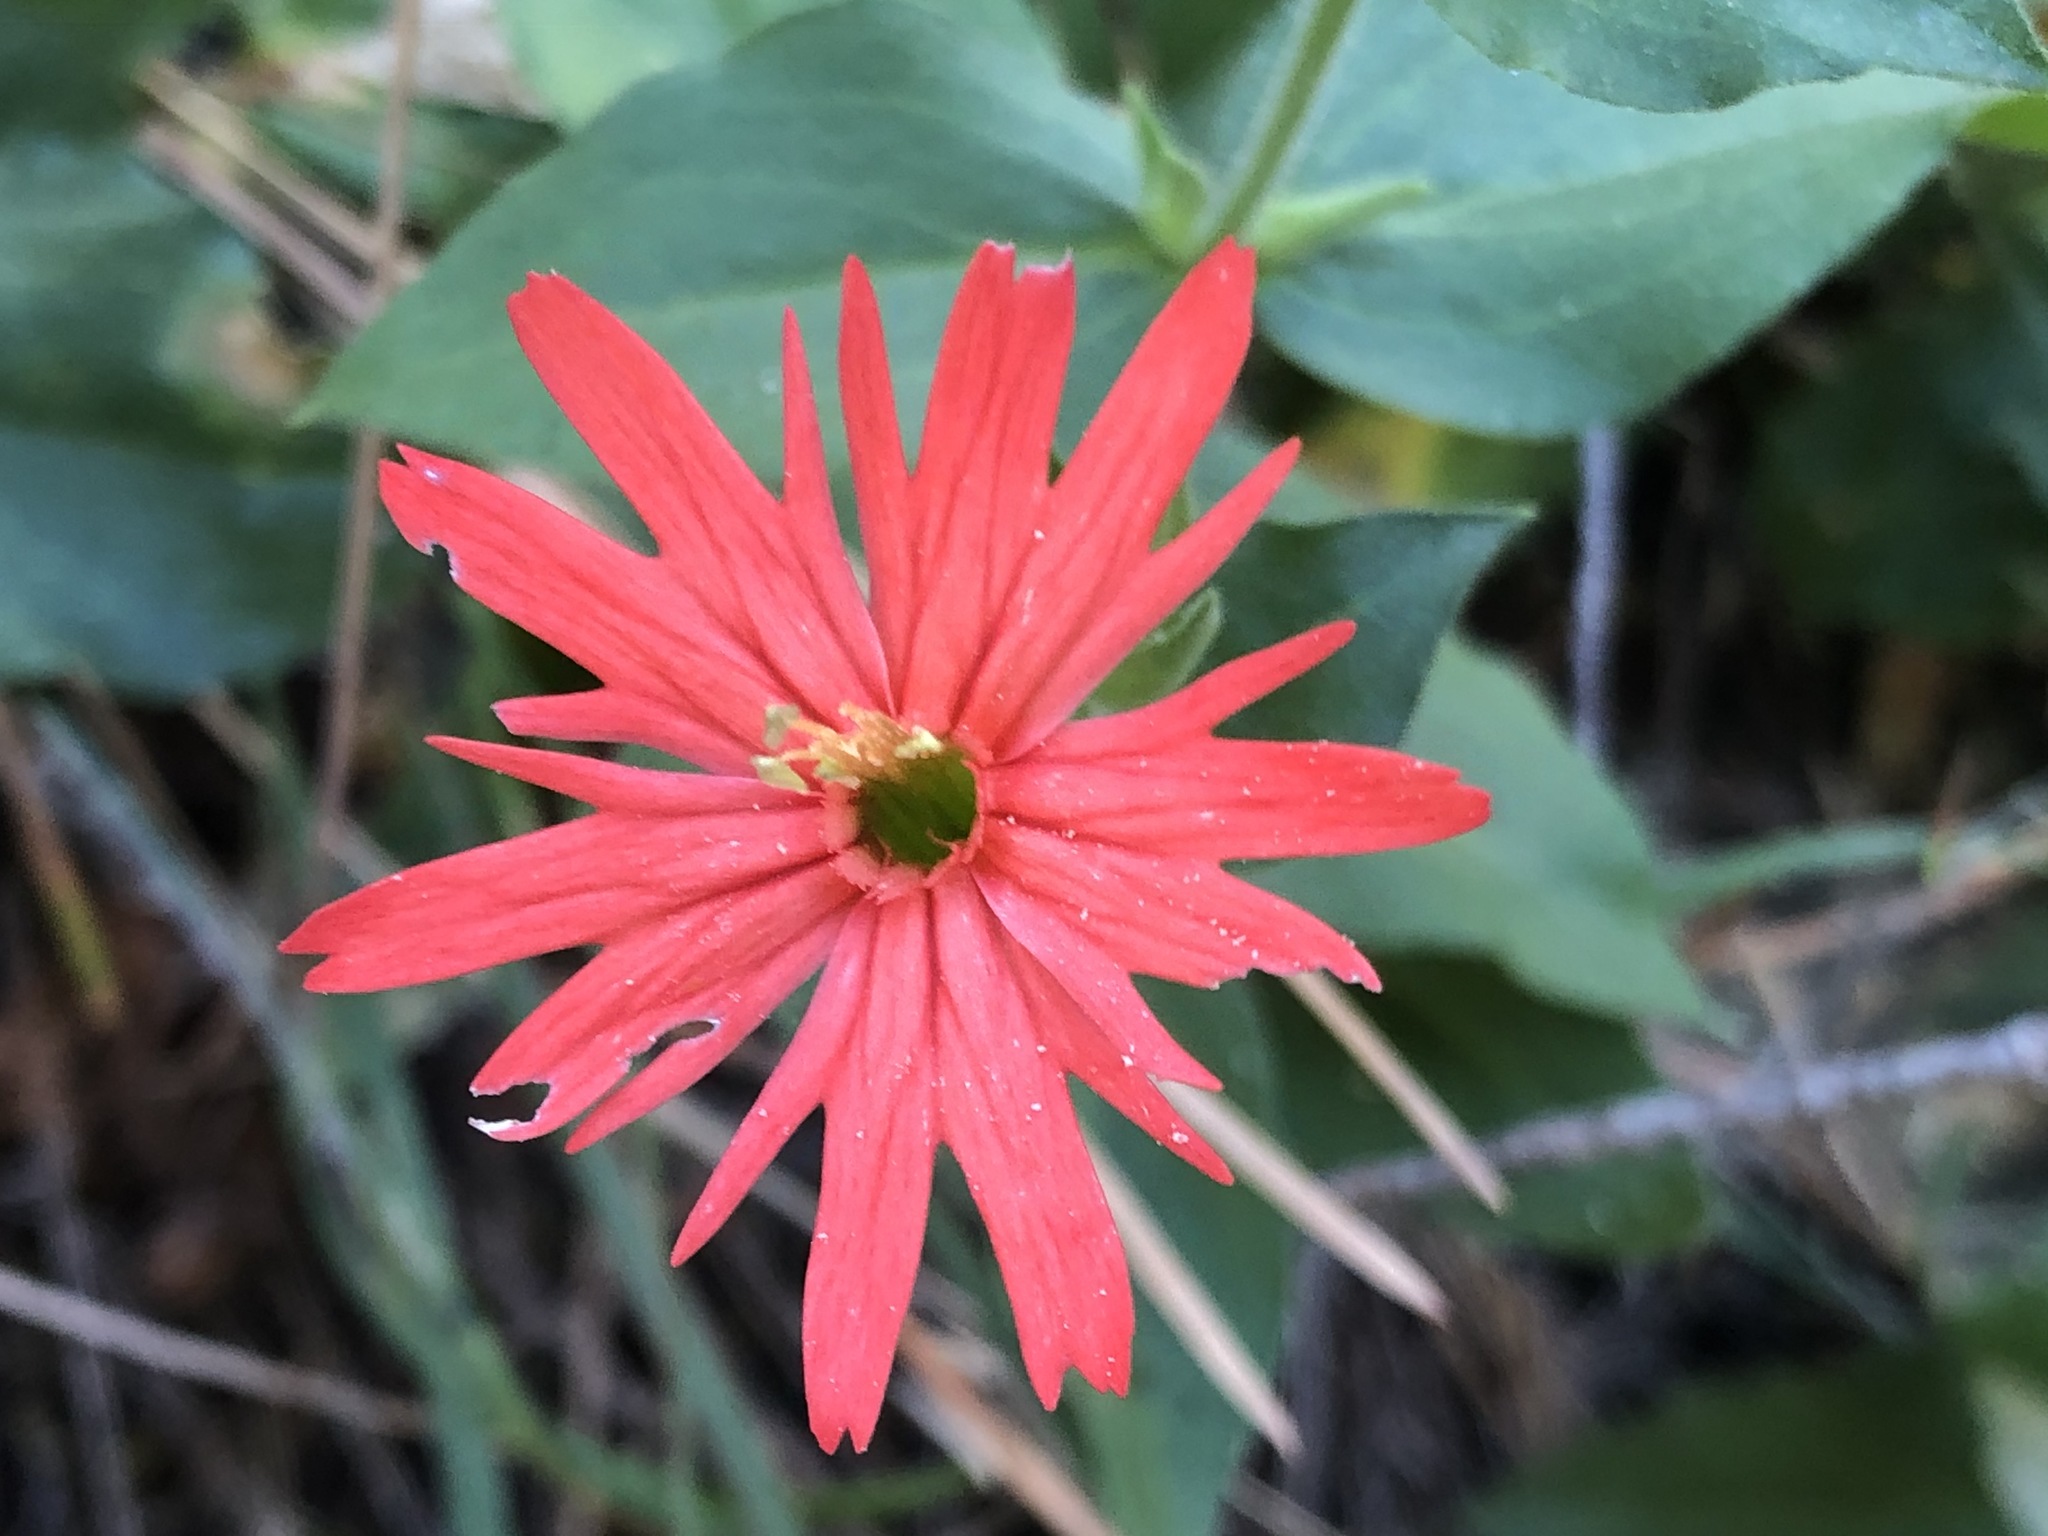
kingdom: Plantae
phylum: Tracheophyta
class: Magnoliopsida
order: Caryophyllales
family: Caryophyllaceae
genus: Silene
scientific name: Silene laciniata
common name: Indian-pink
